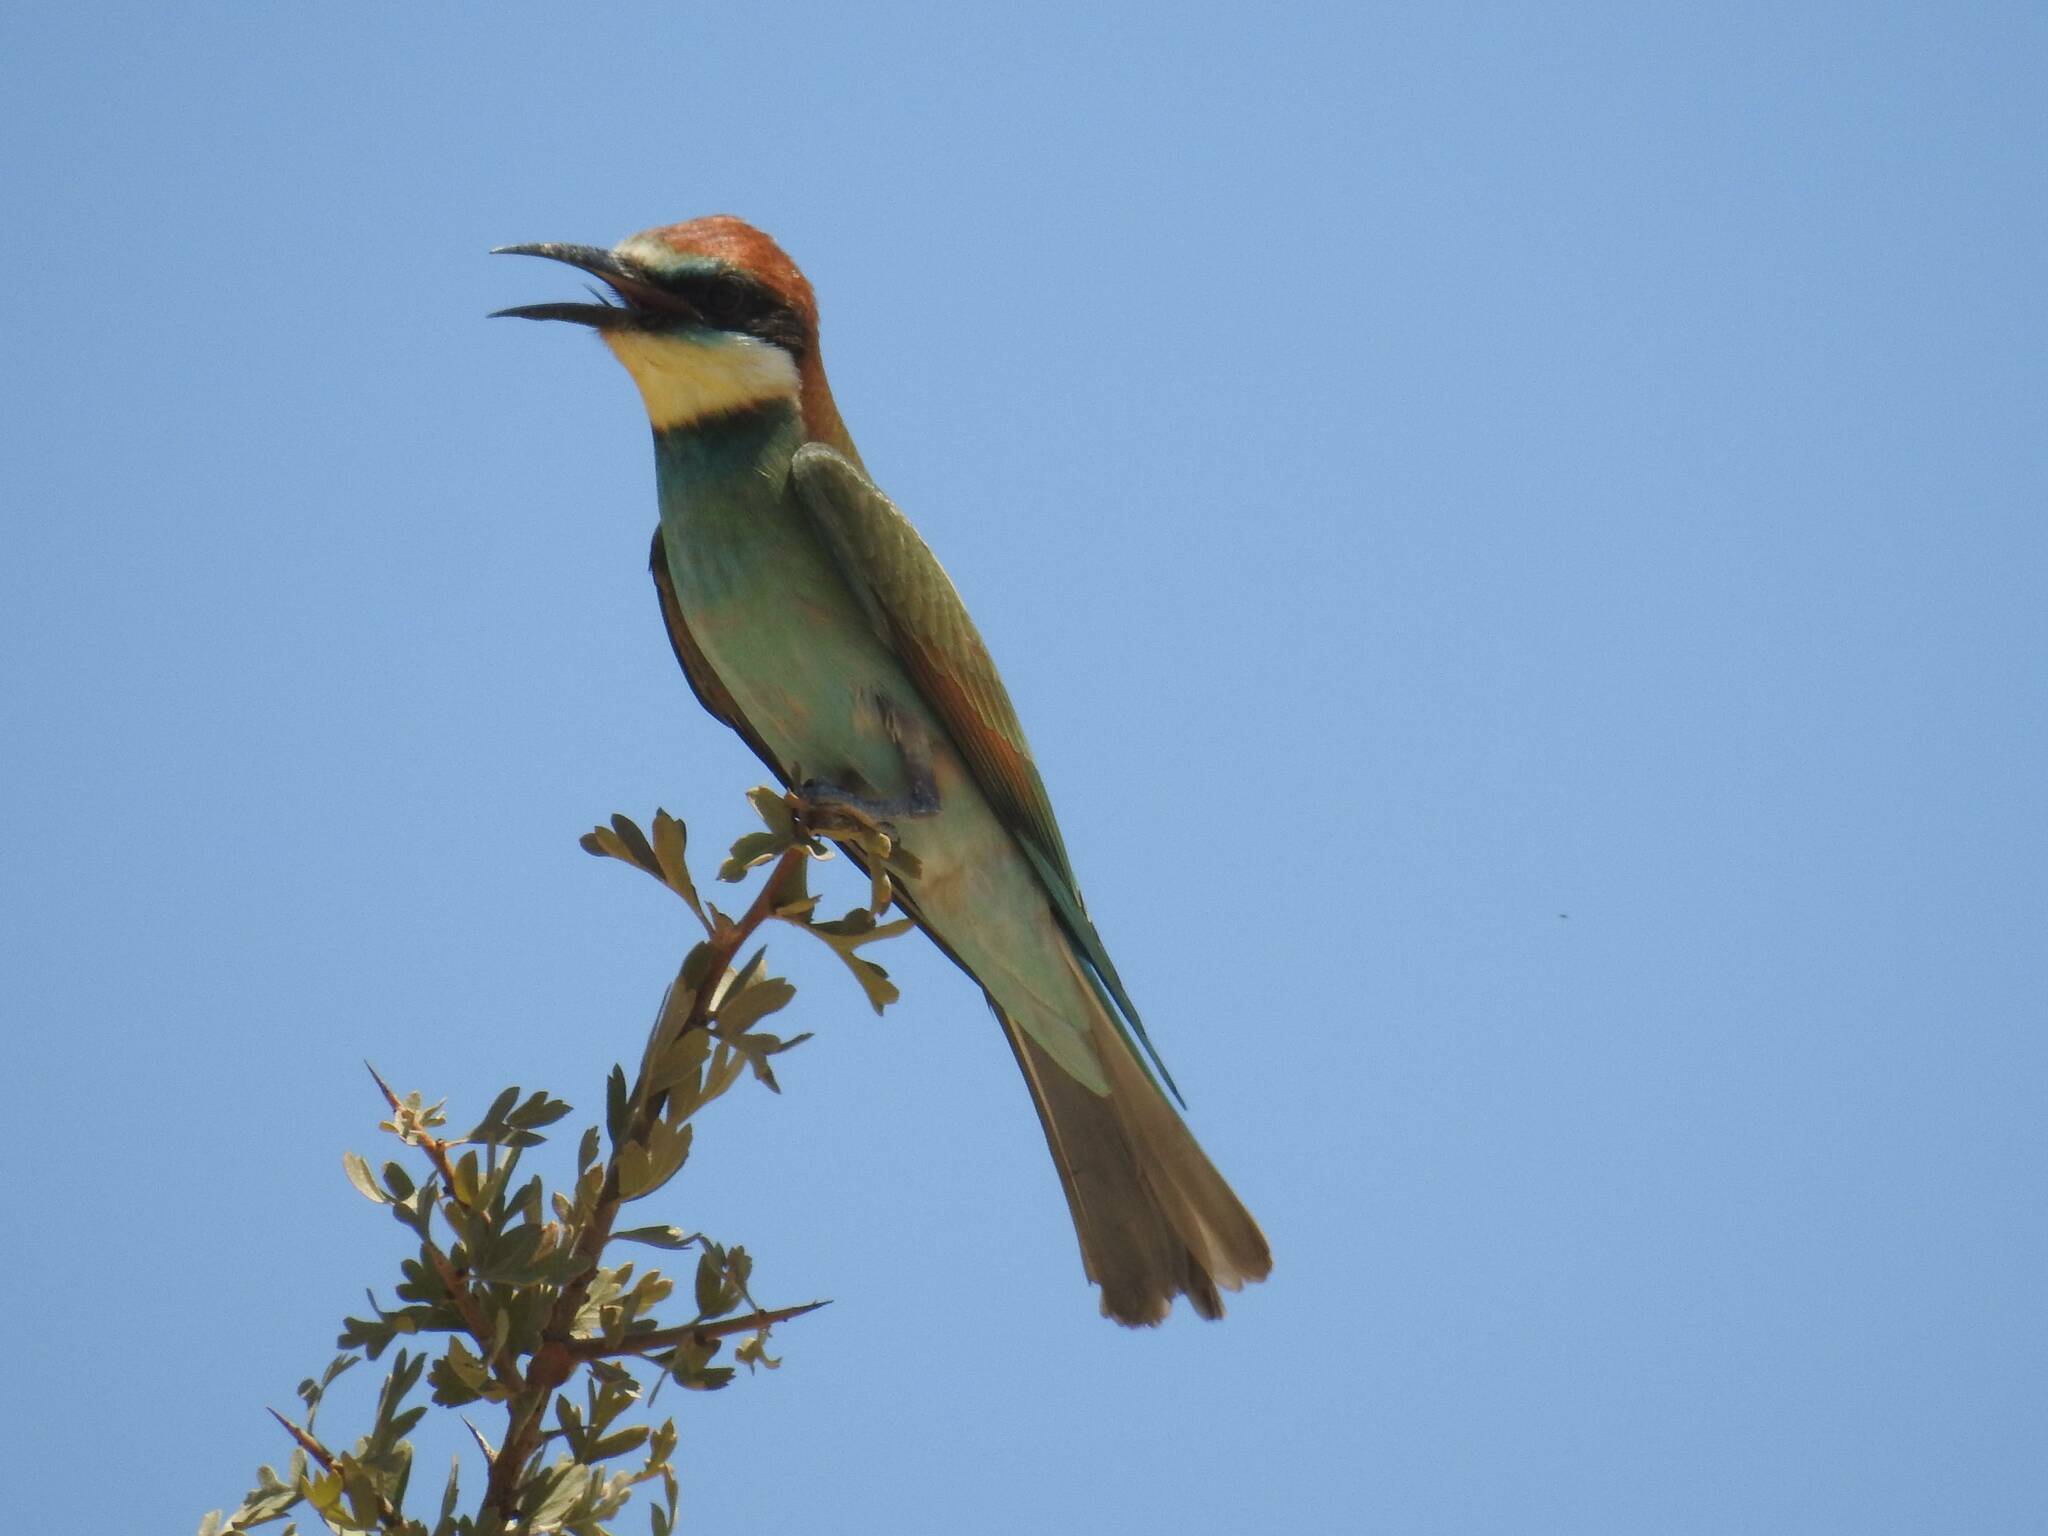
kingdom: Animalia
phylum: Chordata
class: Aves
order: Coraciiformes
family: Meropidae
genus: Merops
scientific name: Merops apiaster
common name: European bee-eater
